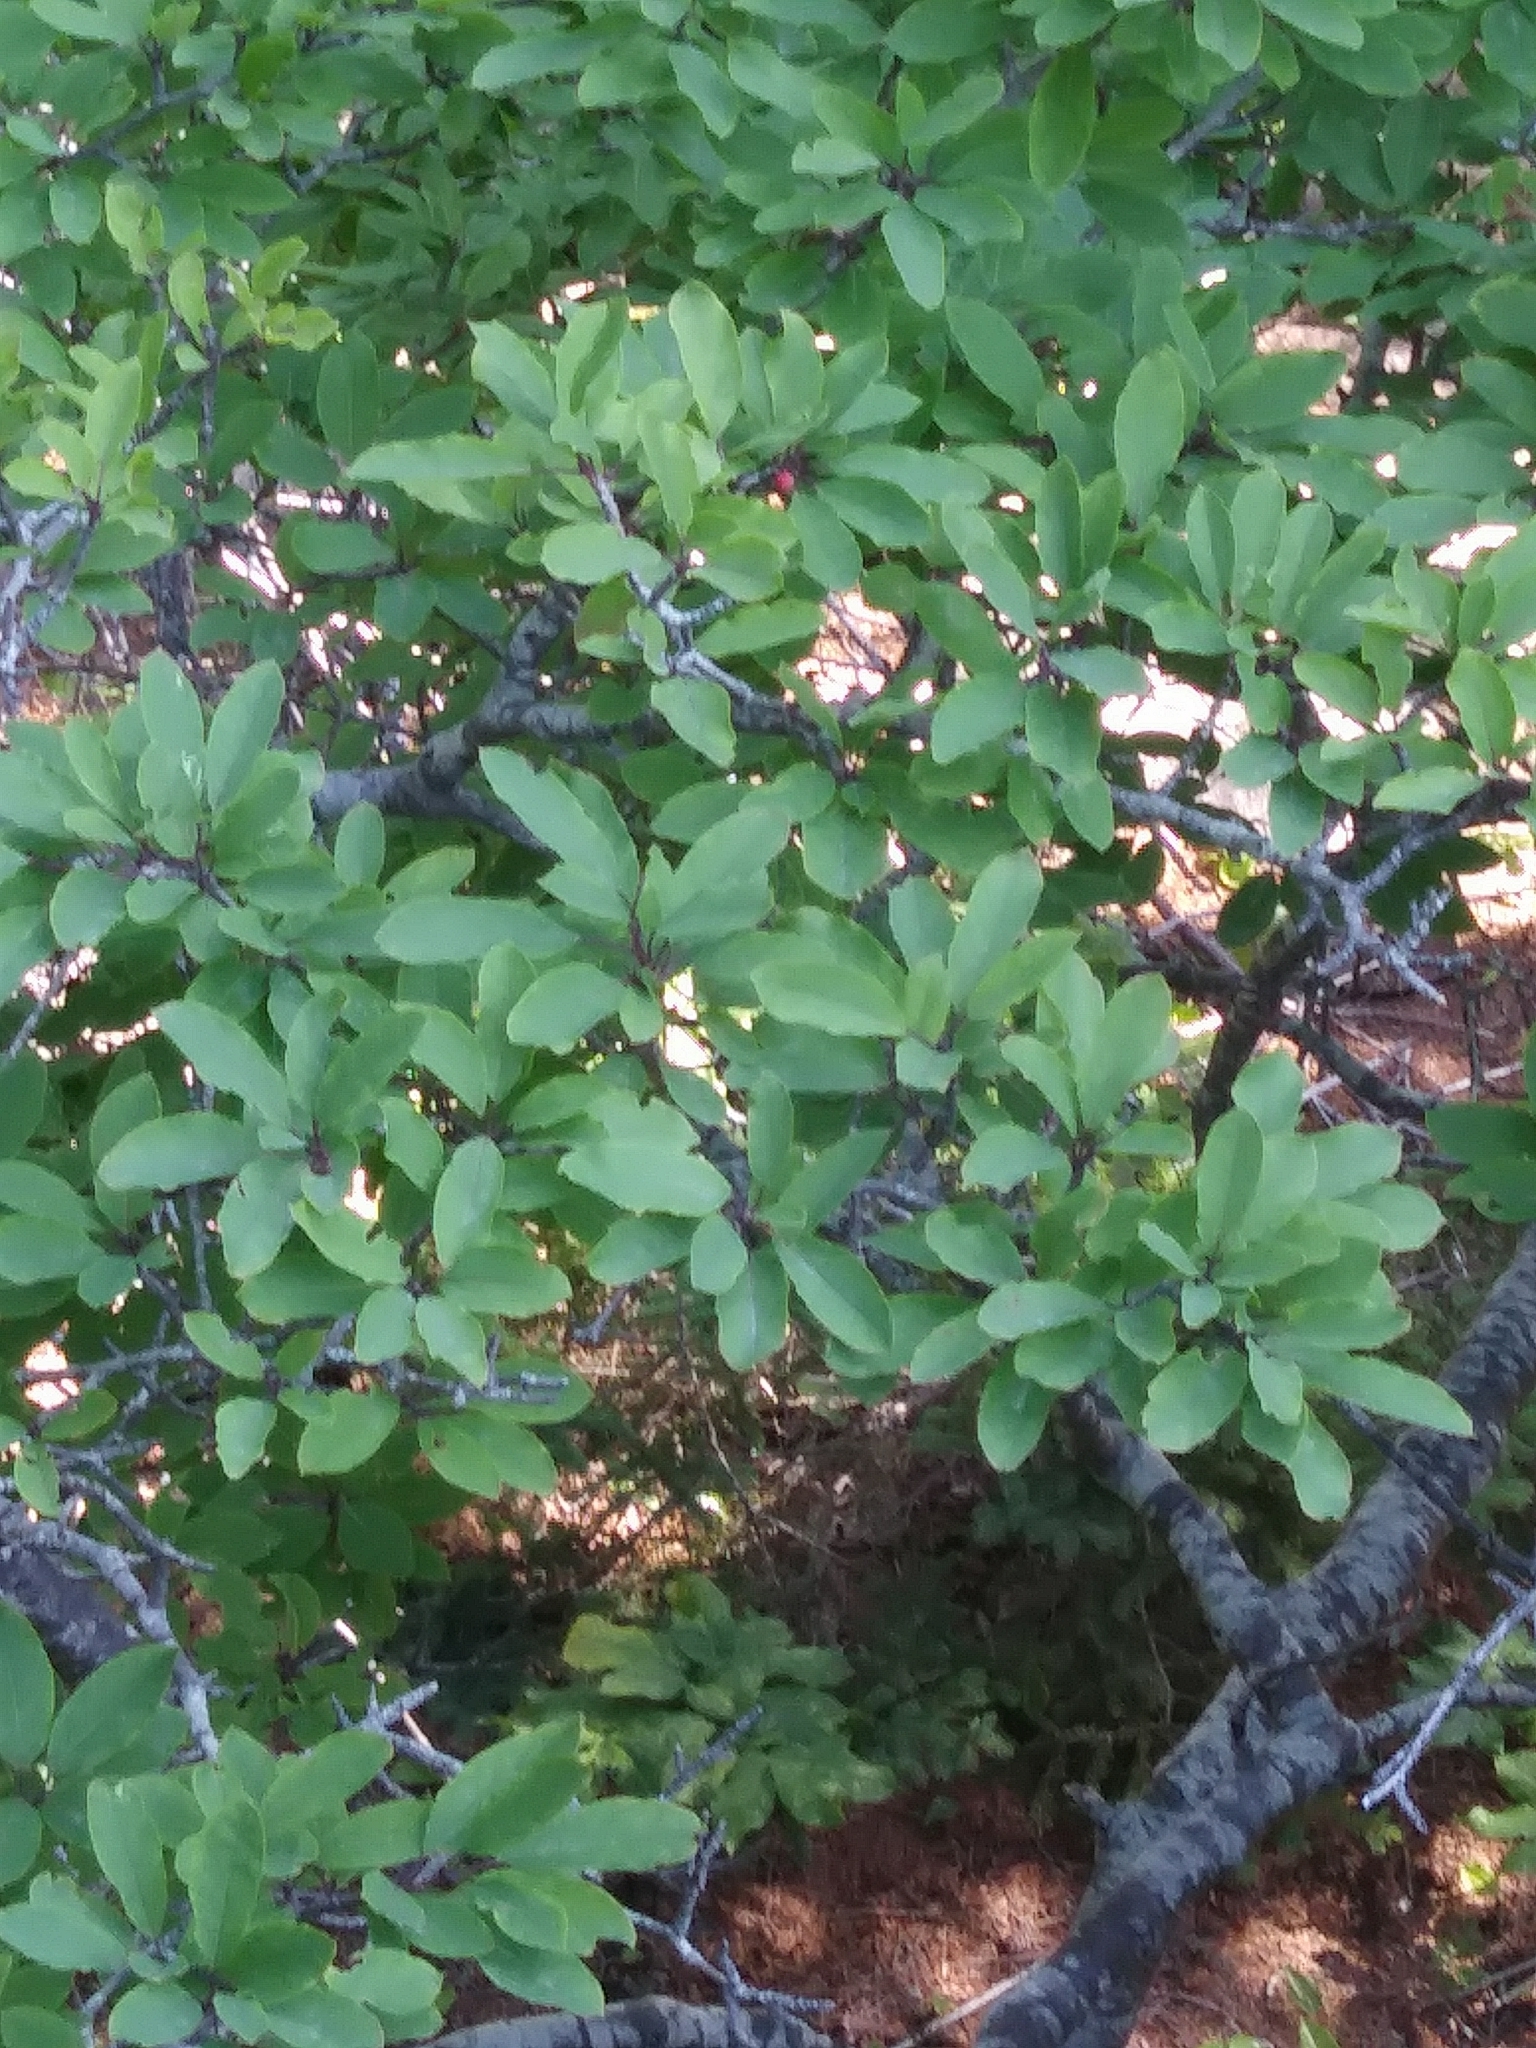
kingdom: Plantae
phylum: Tracheophyta
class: Magnoliopsida
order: Aquifoliales
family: Aquifoliaceae
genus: Ilex
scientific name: Ilex mucronata
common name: Catberry
